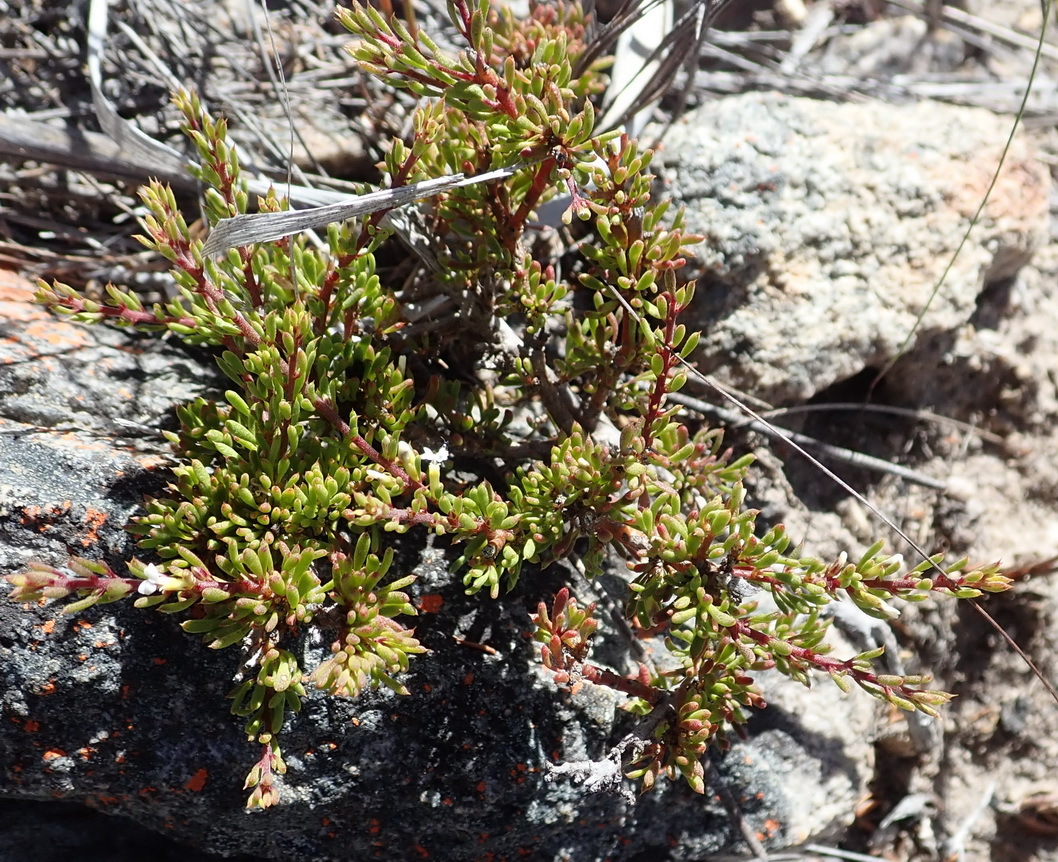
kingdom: Plantae
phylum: Tracheophyta
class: Magnoliopsida
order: Fabales
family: Polygalaceae
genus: Muraltia
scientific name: Muraltia karroica
